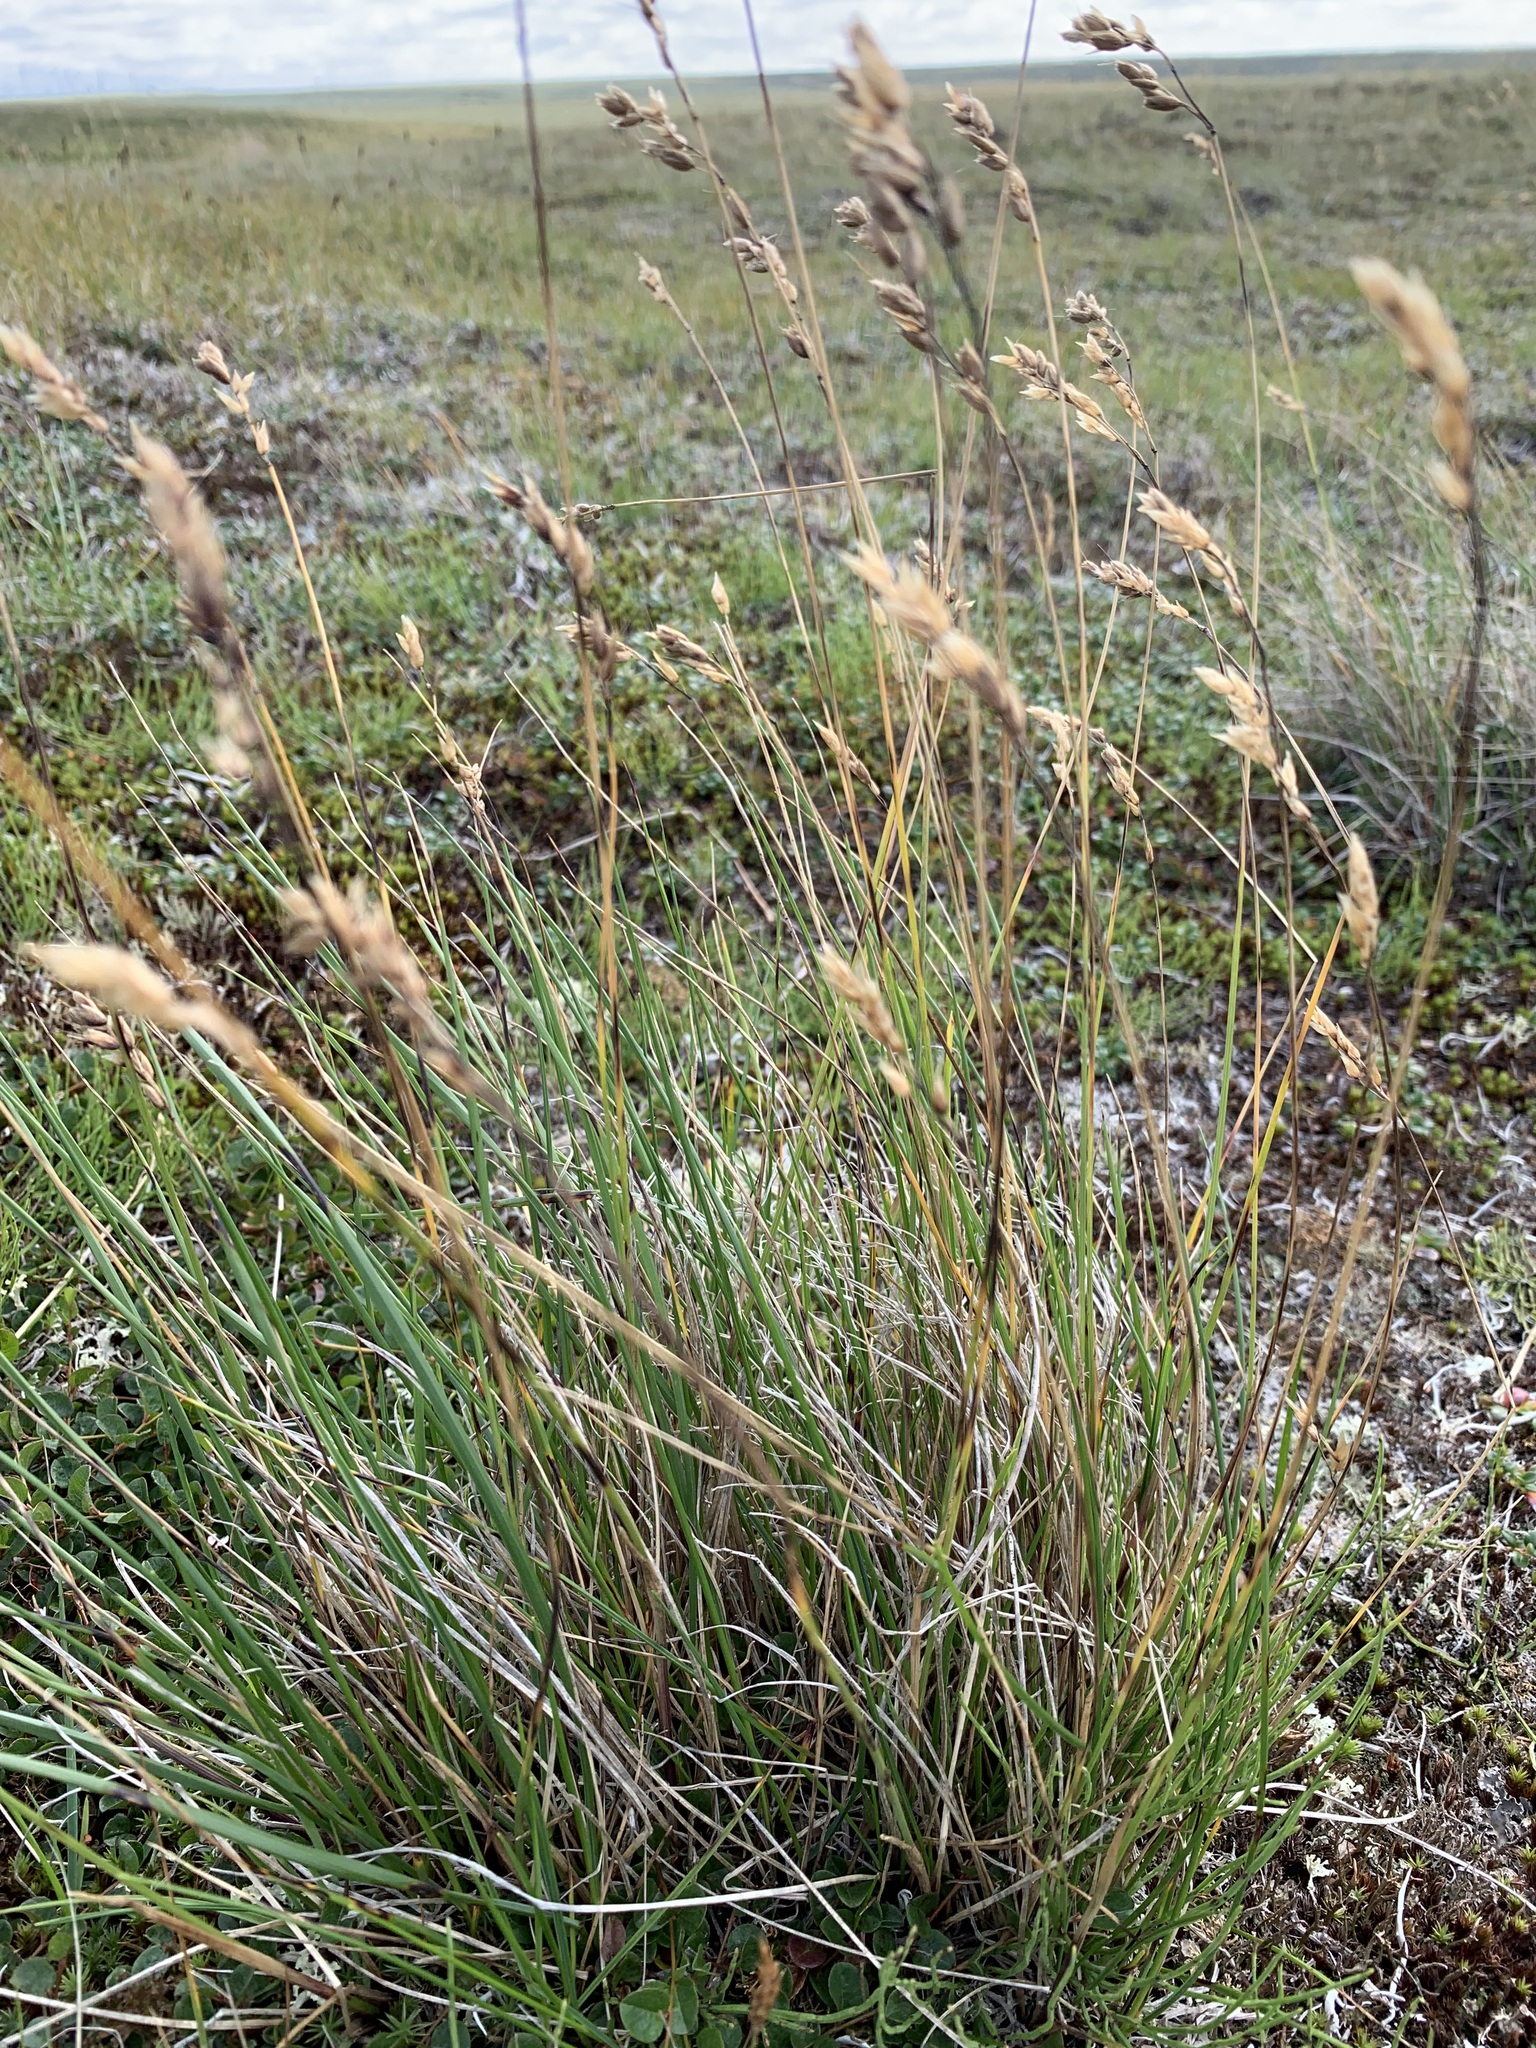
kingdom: Plantae
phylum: Tracheophyta
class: Liliopsida
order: Poales
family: Poaceae
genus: Anthoxanthum
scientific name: Anthoxanthum monticola
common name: Alpine sweetgrass
